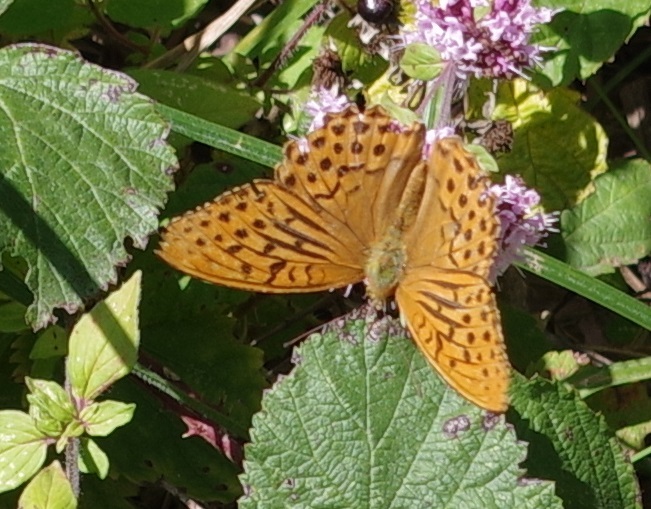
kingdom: Animalia
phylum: Arthropoda
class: Insecta
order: Lepidoptera
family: Nymphalidae
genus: Argynnis
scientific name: Argynnis paphia
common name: Silver-washed fritillary
